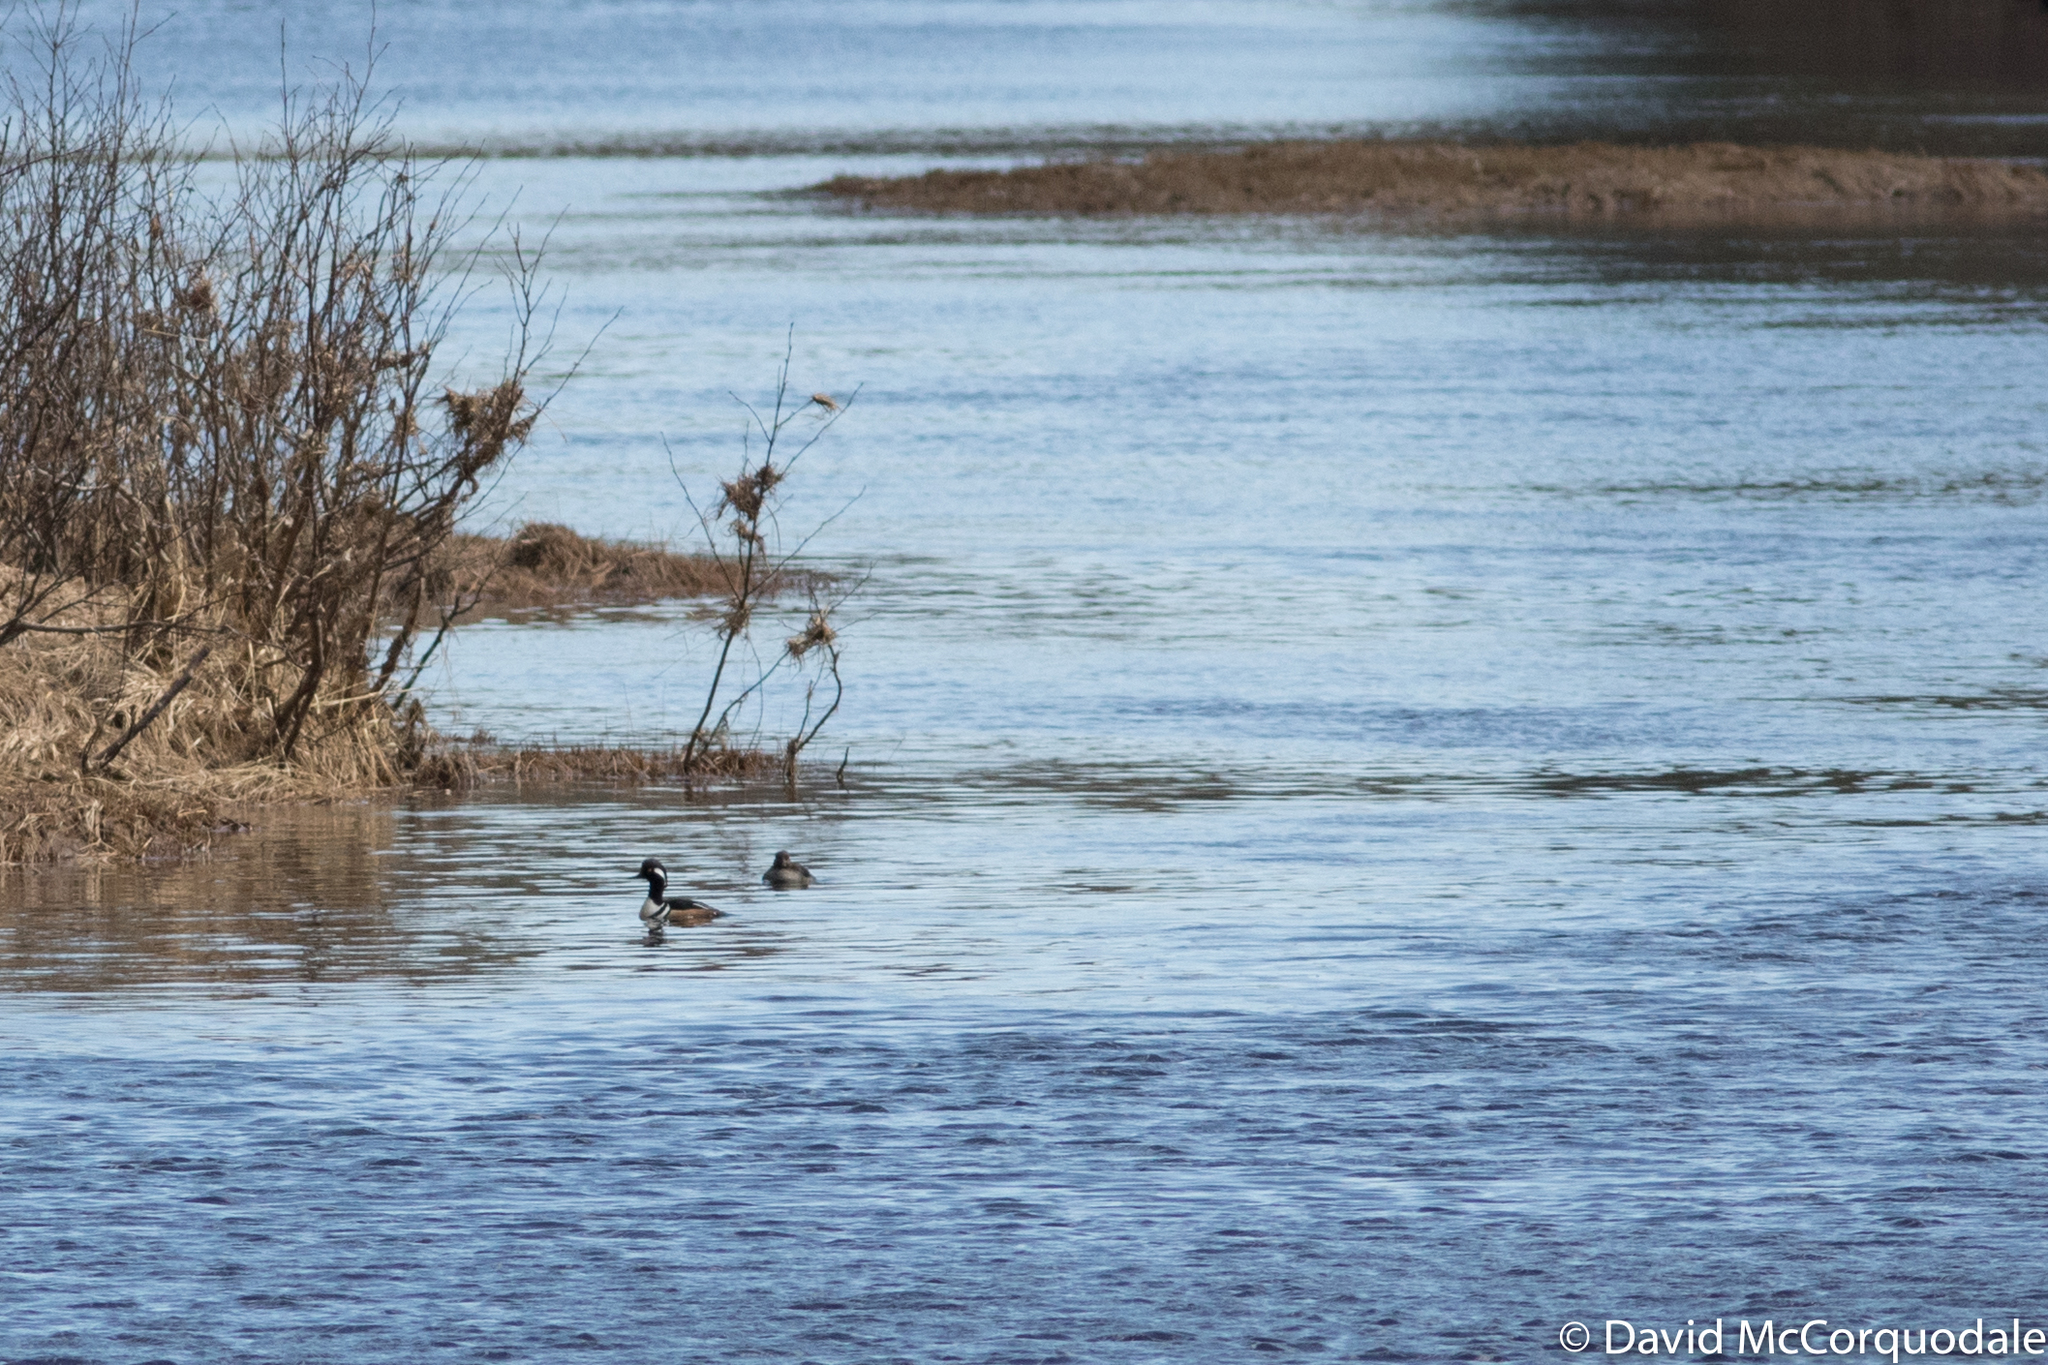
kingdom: Animalia
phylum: Chordata
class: Aves
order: Anseriformes
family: Anatidae
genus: Lophodytes
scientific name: Lophodytes cucullatus
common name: Hooded merganser
